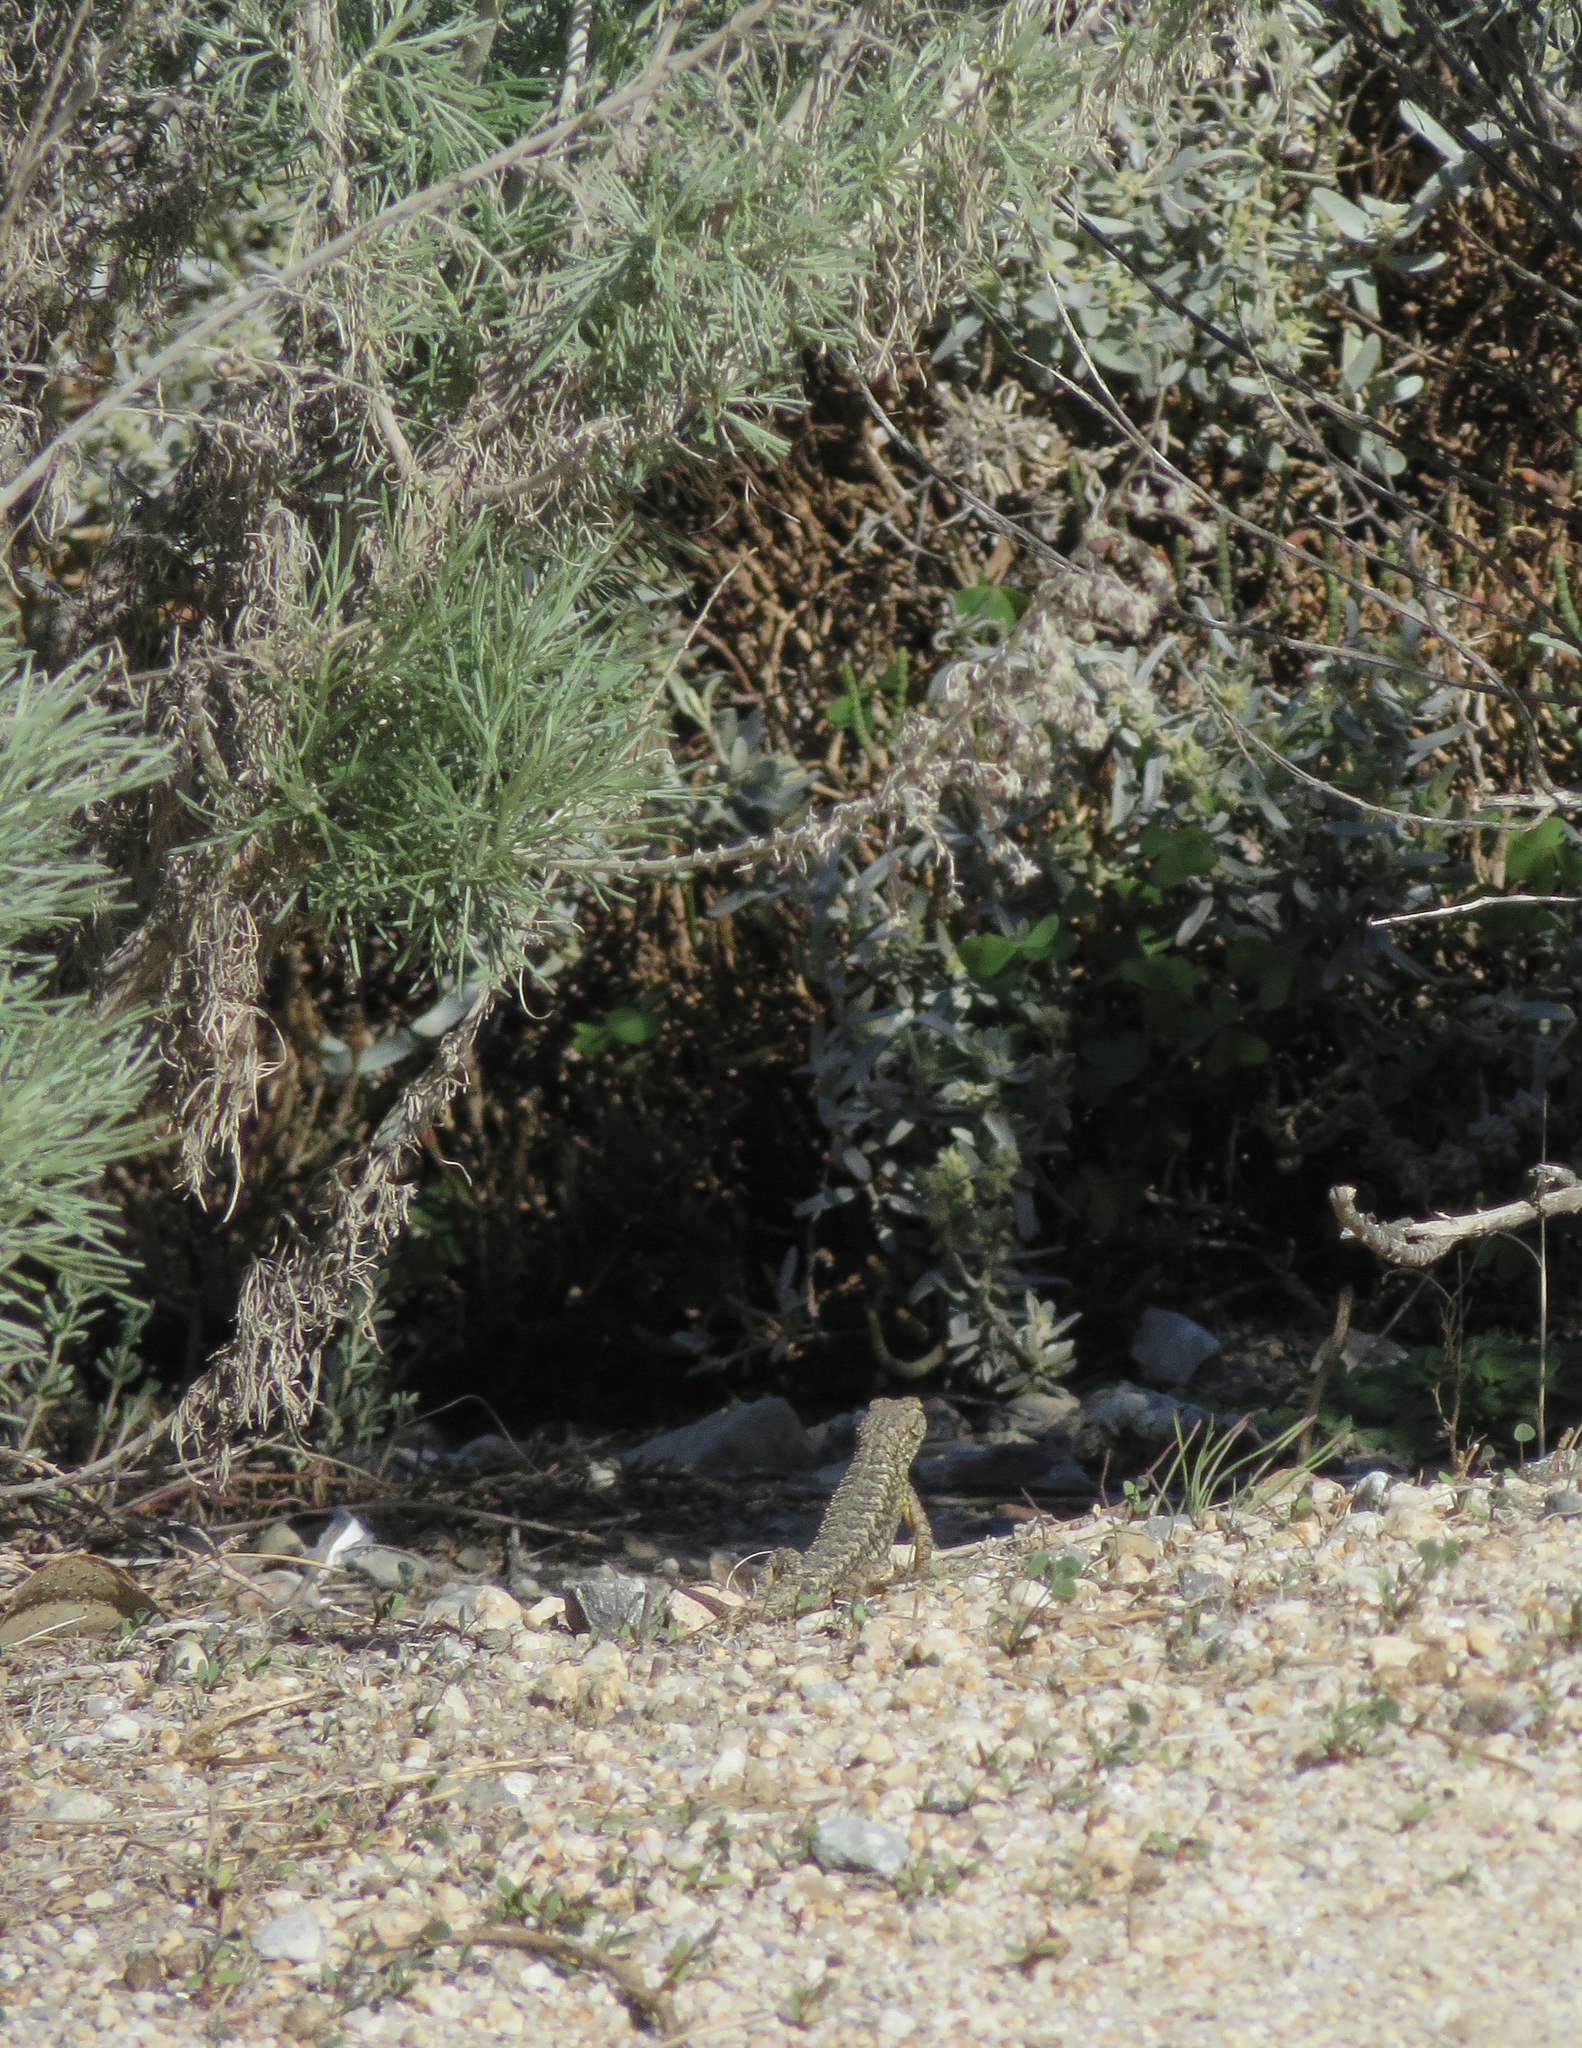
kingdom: Animalia
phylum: Chordata
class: Squamata
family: Phrynosomatidae
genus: Sceloporus
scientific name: Sceloporus occidentalis
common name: Western fence lizard
